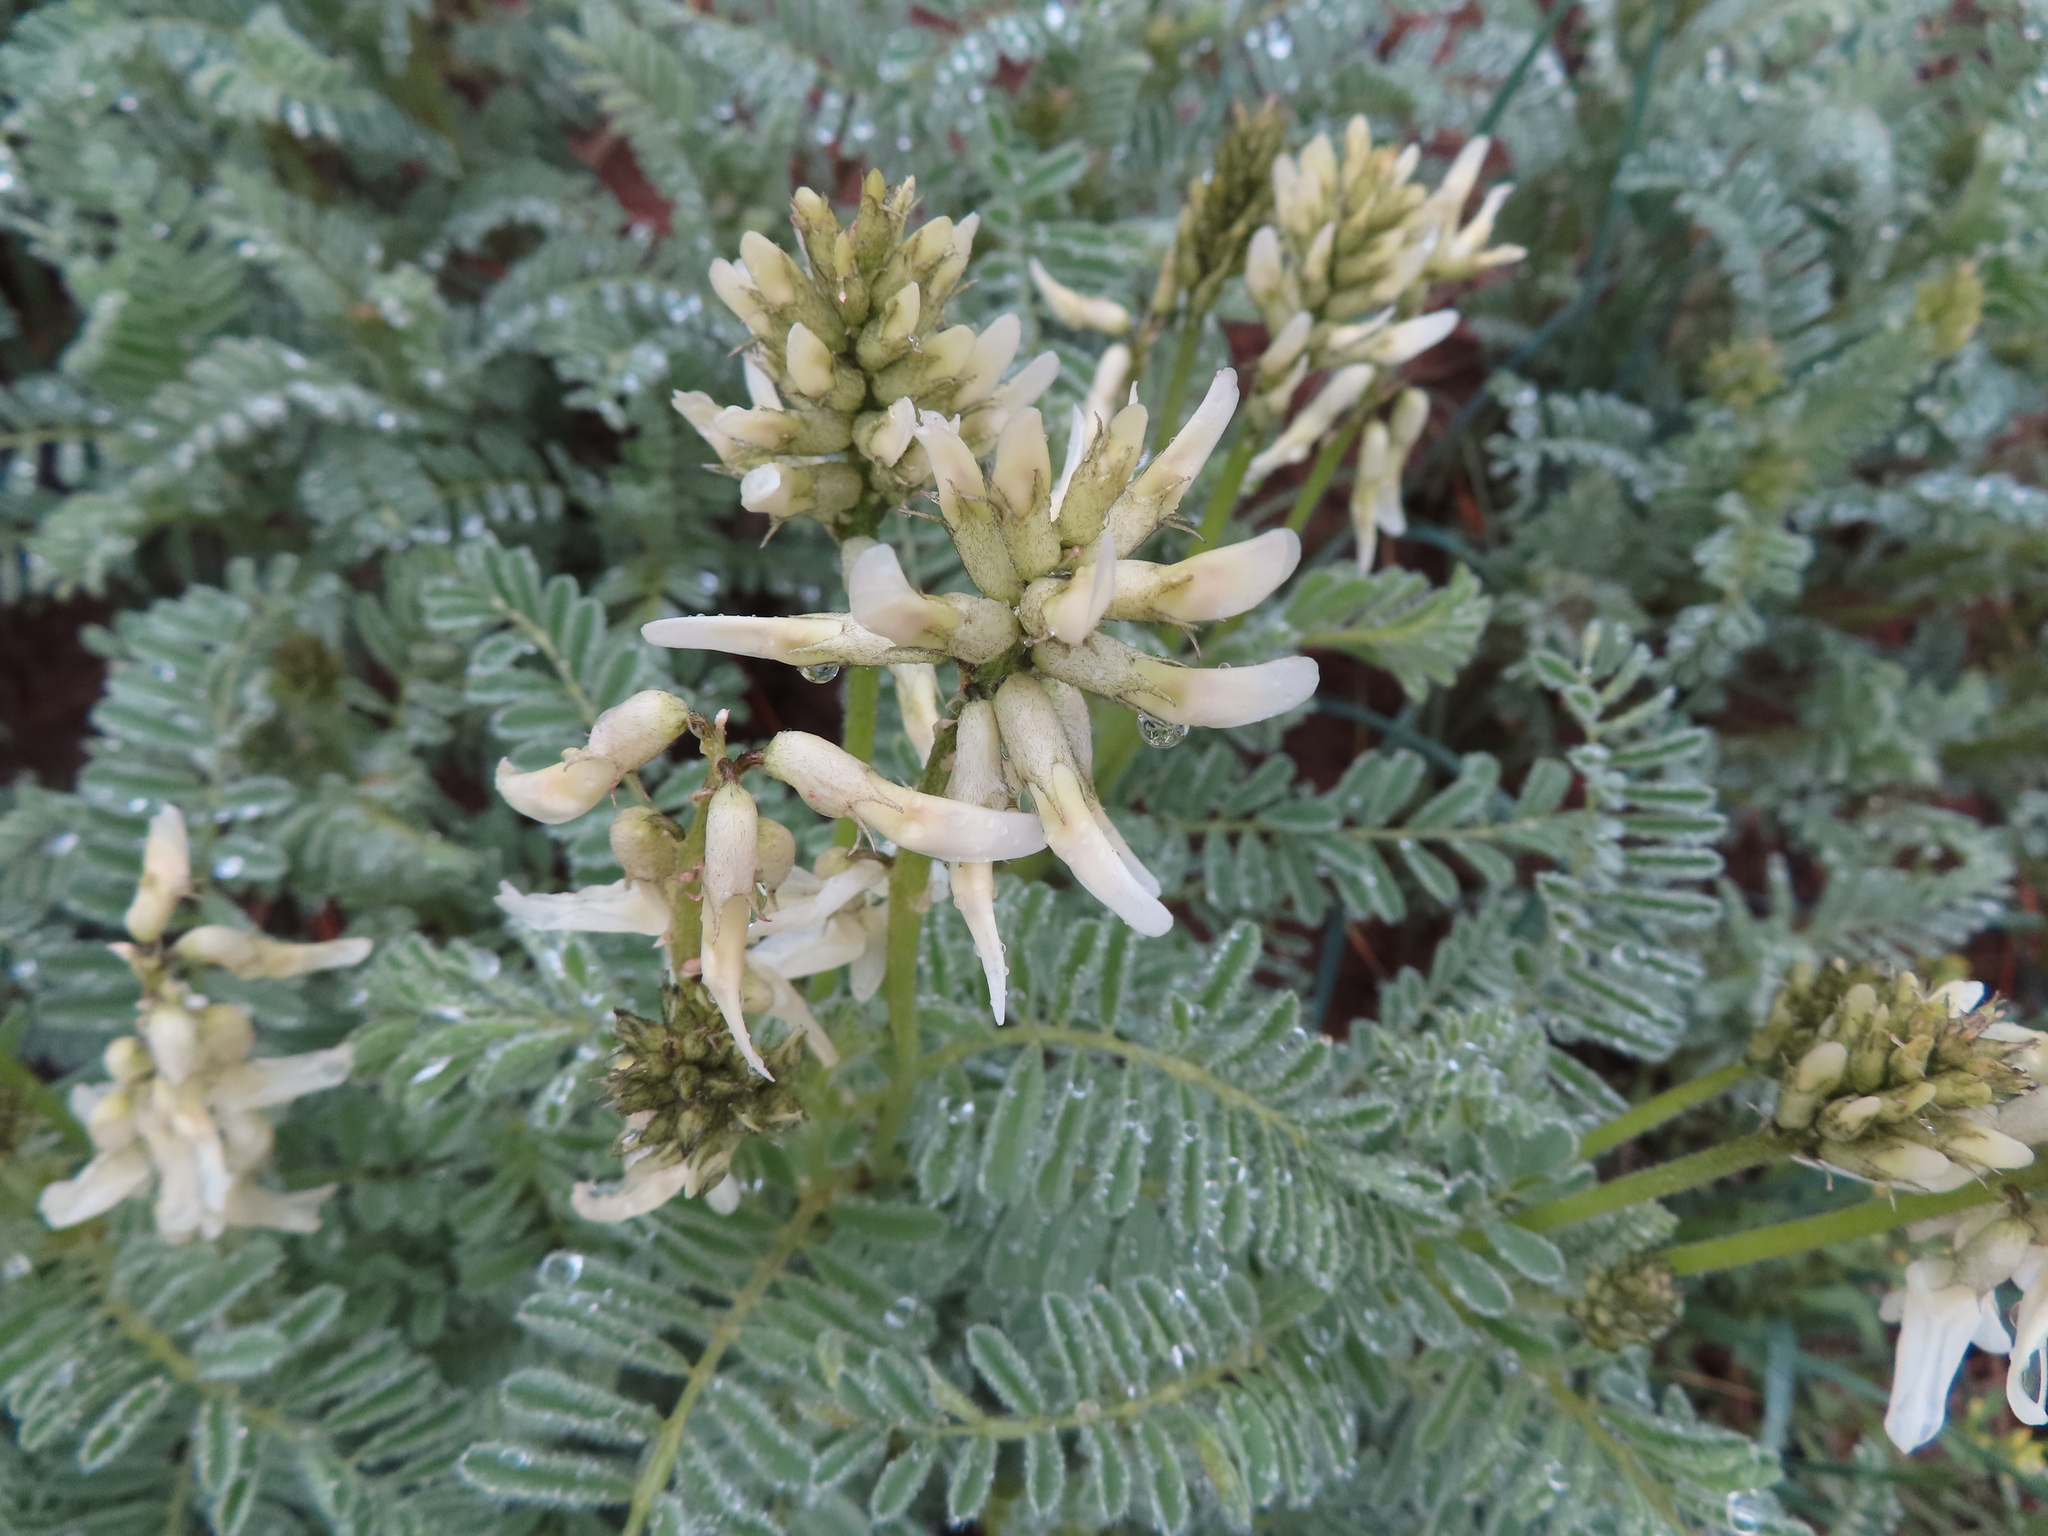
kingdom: Plantae
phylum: Tracheophyta
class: Magnoliopsida
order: Fabales
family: Fabaceae
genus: Astragalus
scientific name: Astragalus drummondii
